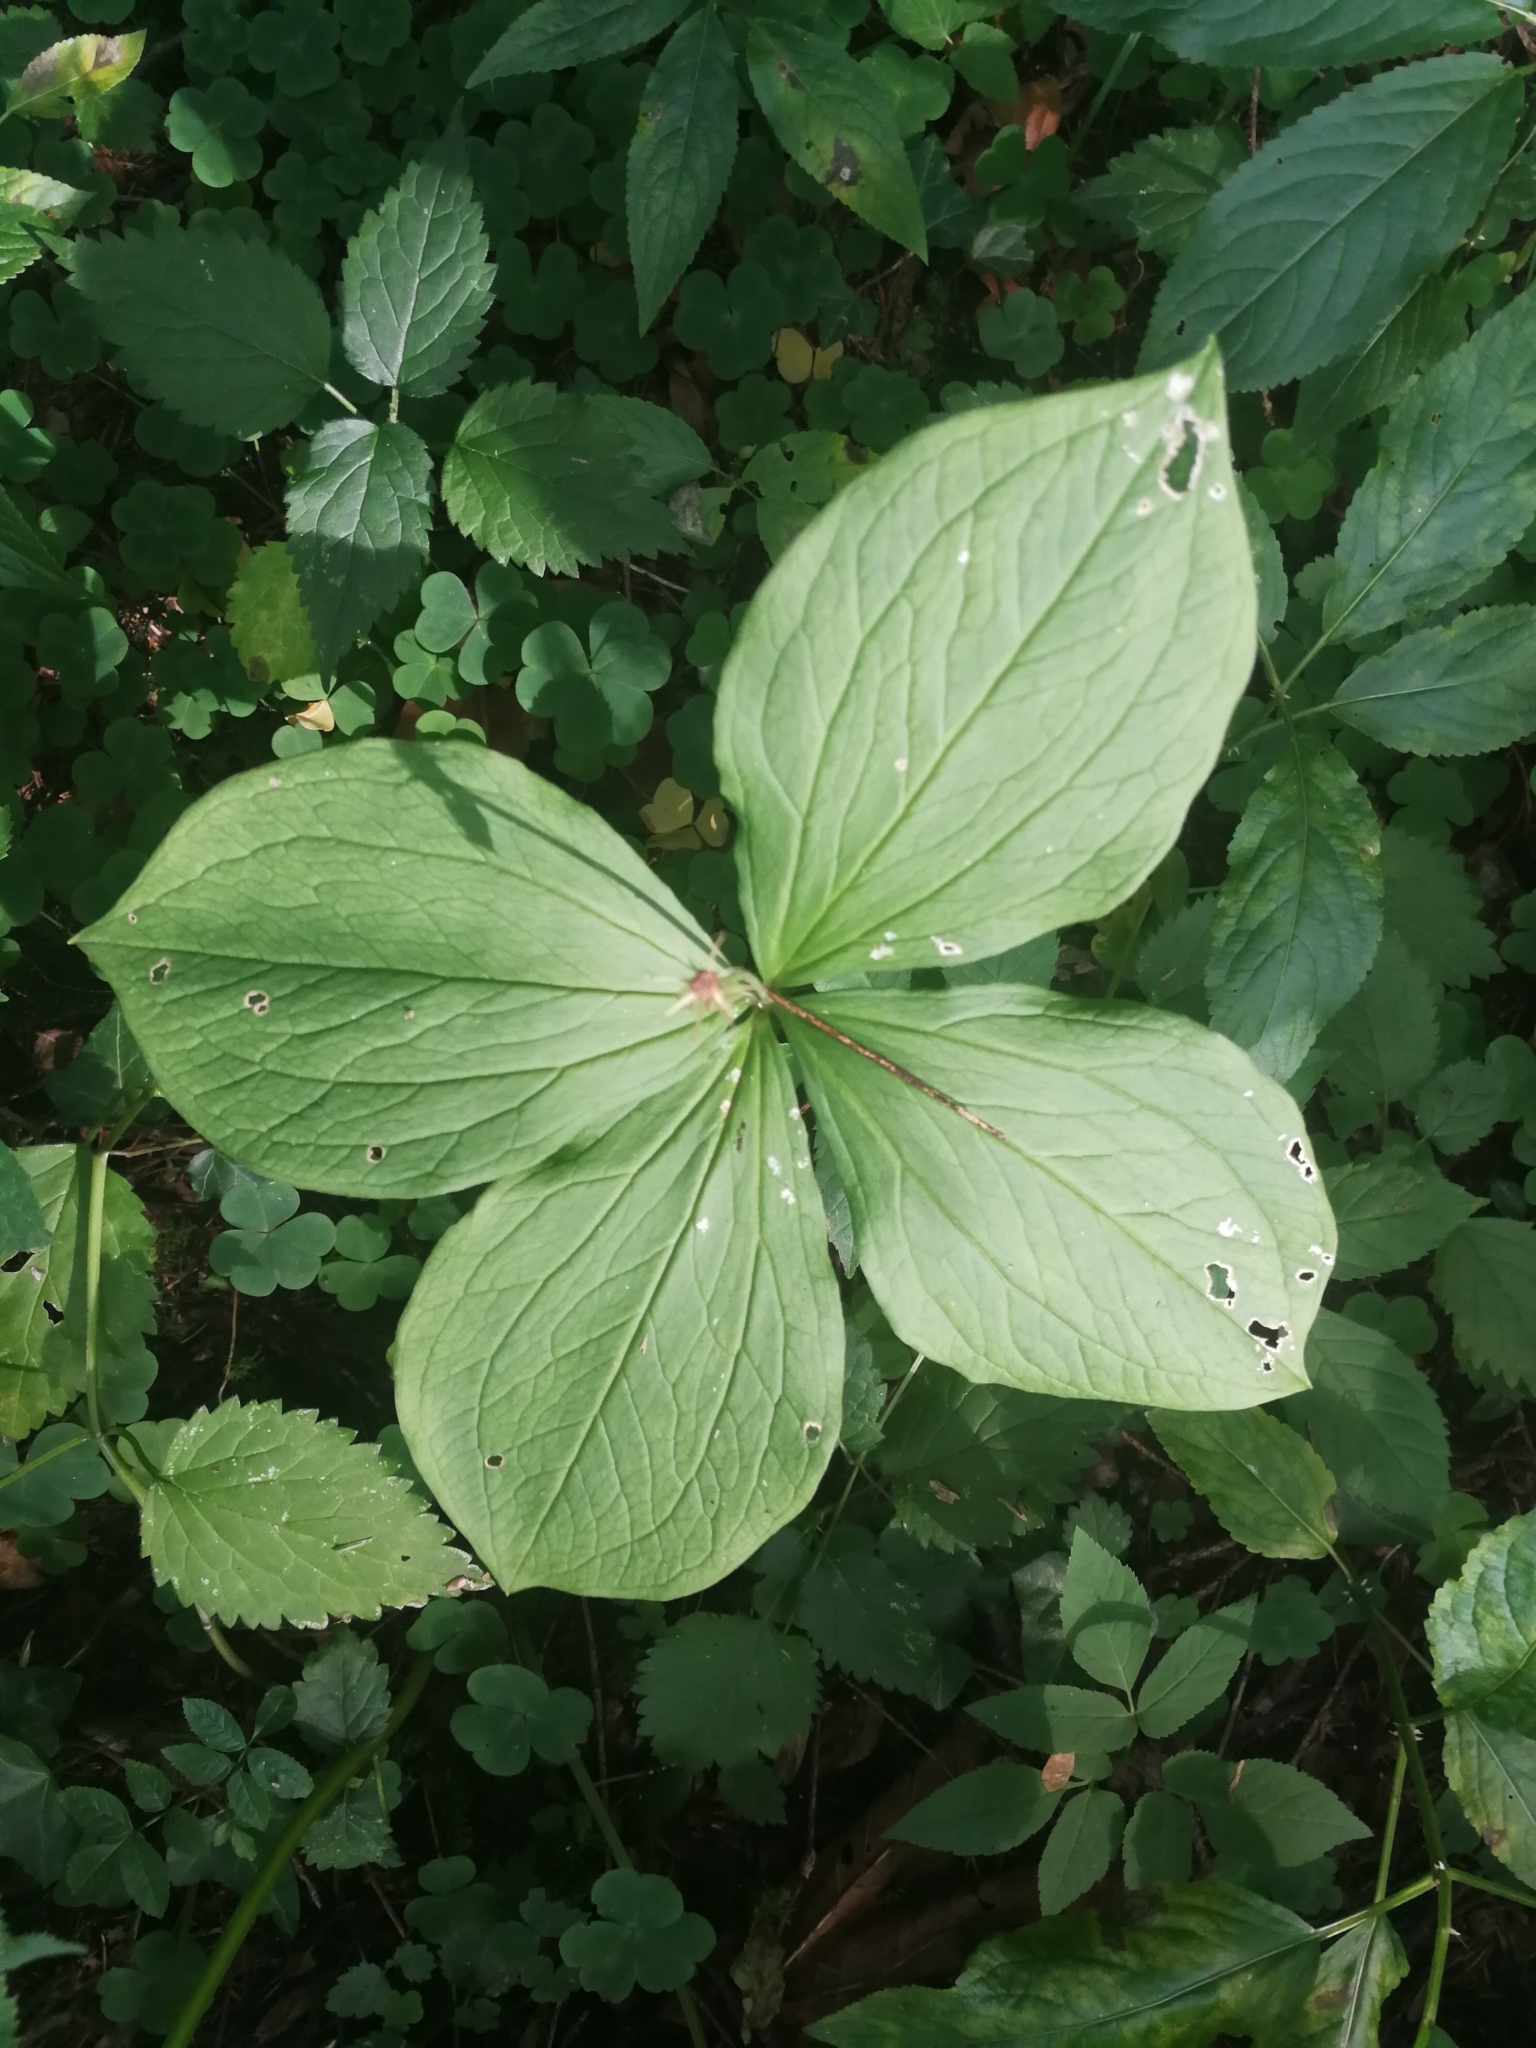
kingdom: Plantae
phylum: Tracheophyta
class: Liliopsida
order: Liliales
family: Melanthiaceae
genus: Paris
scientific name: Paris quadrifolia
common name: Herb-paris
